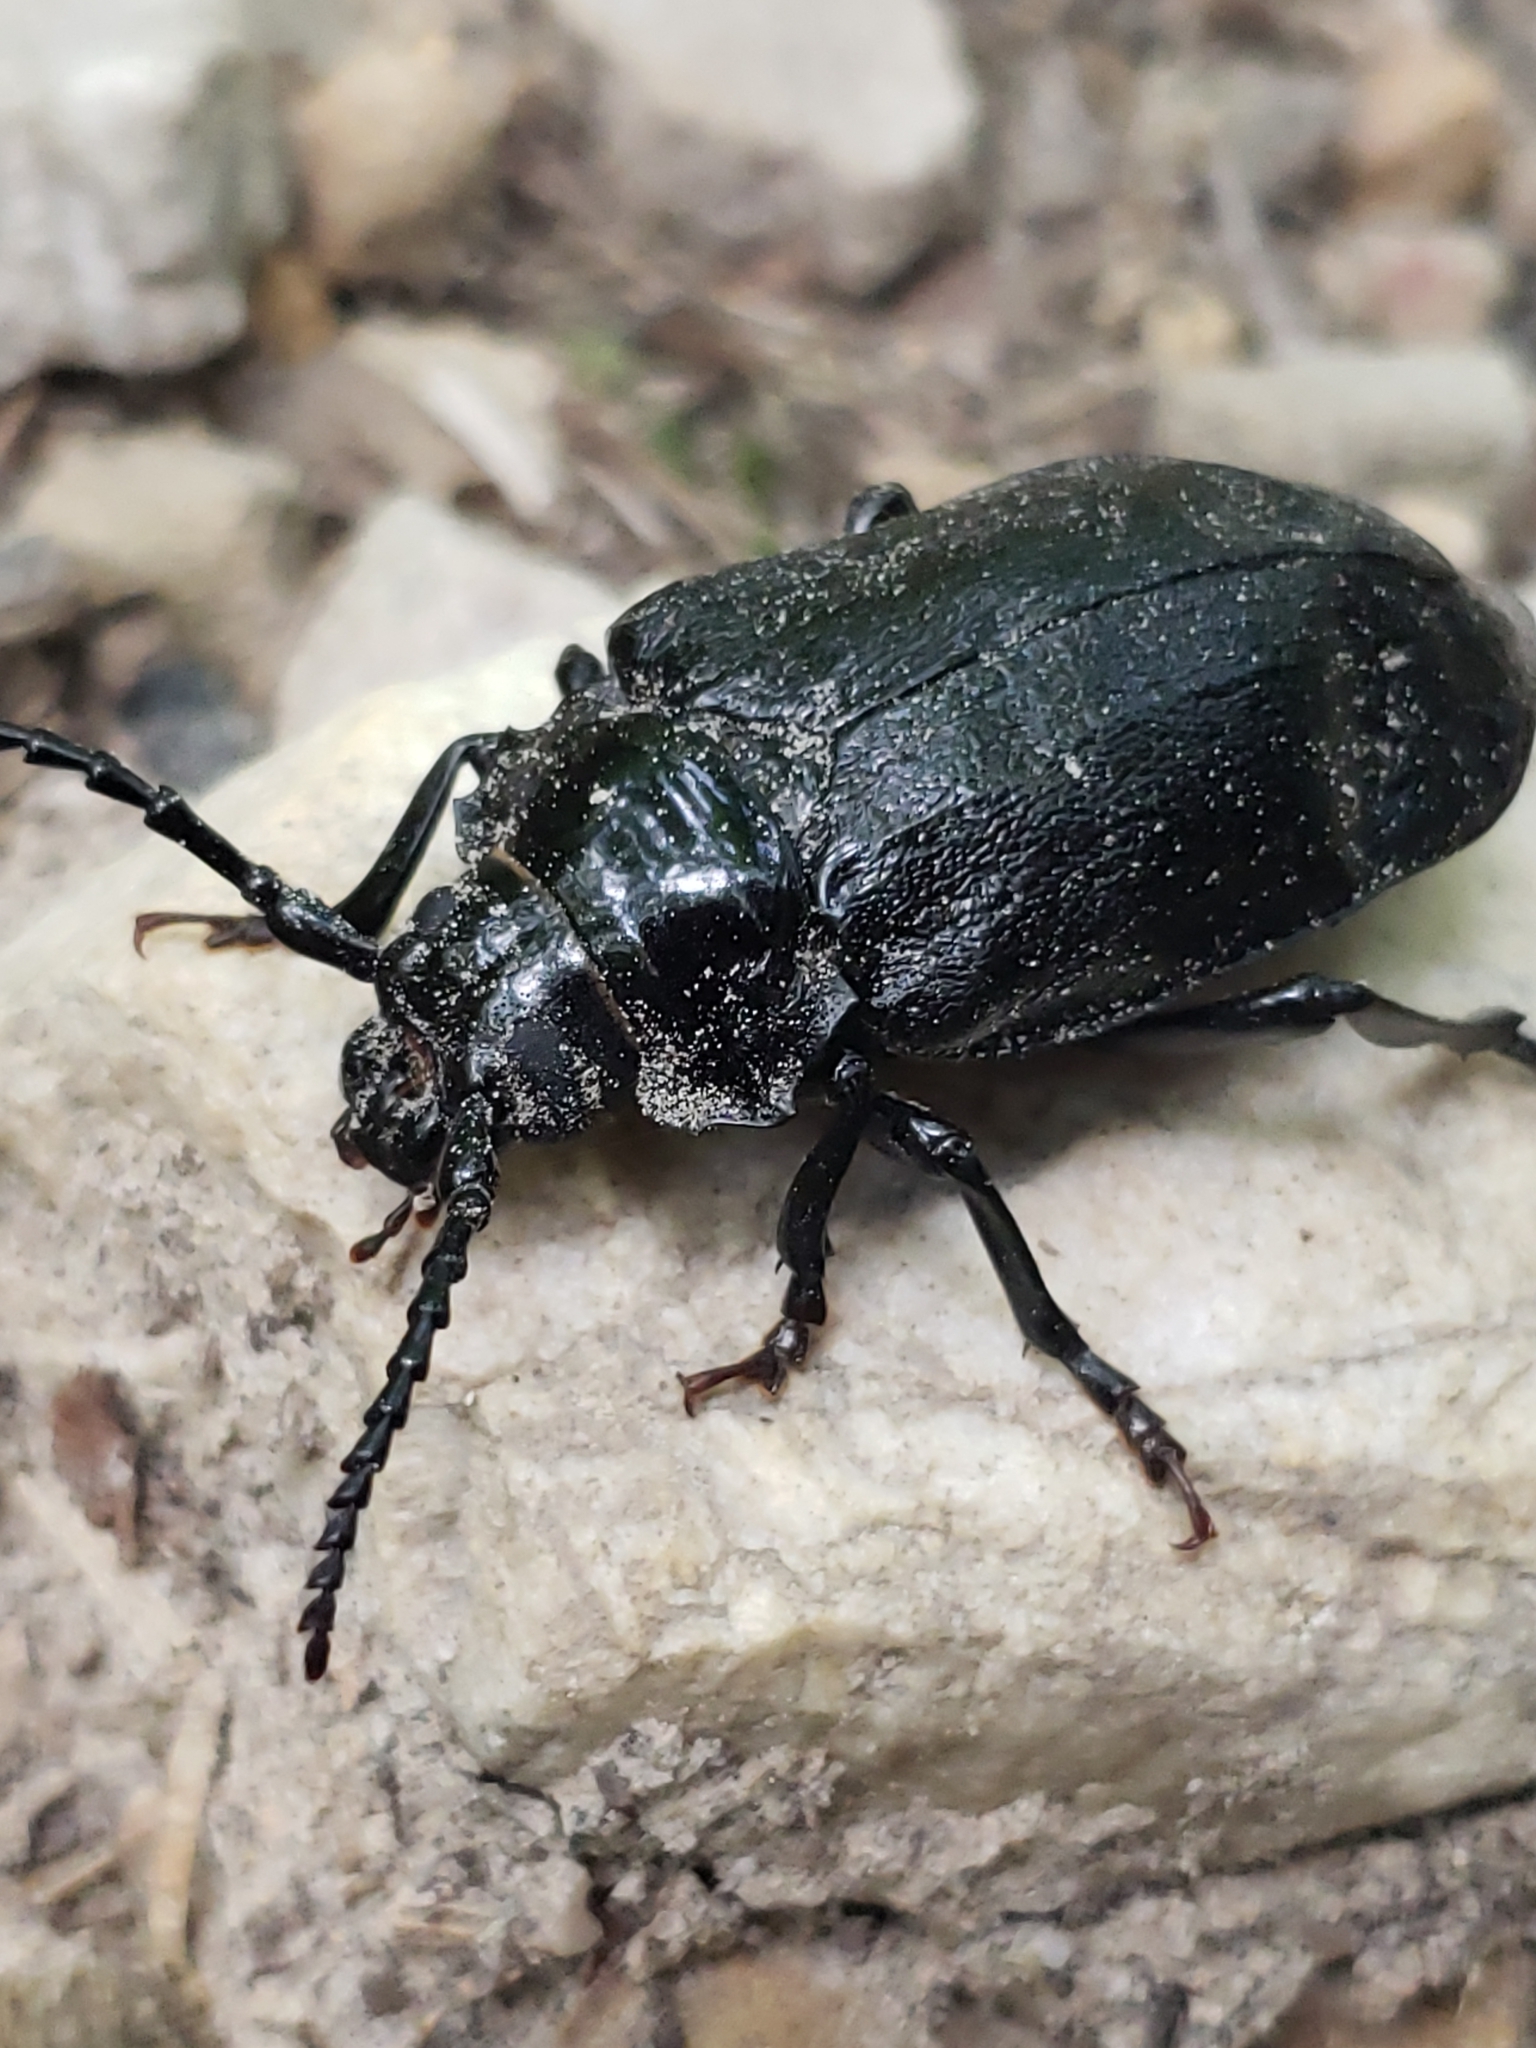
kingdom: Animalia
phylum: Arthropoda
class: Insecta
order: Coleoptera
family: Cerambycidae
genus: Prionus
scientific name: Prionus laticollis
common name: Broad necked prionus
